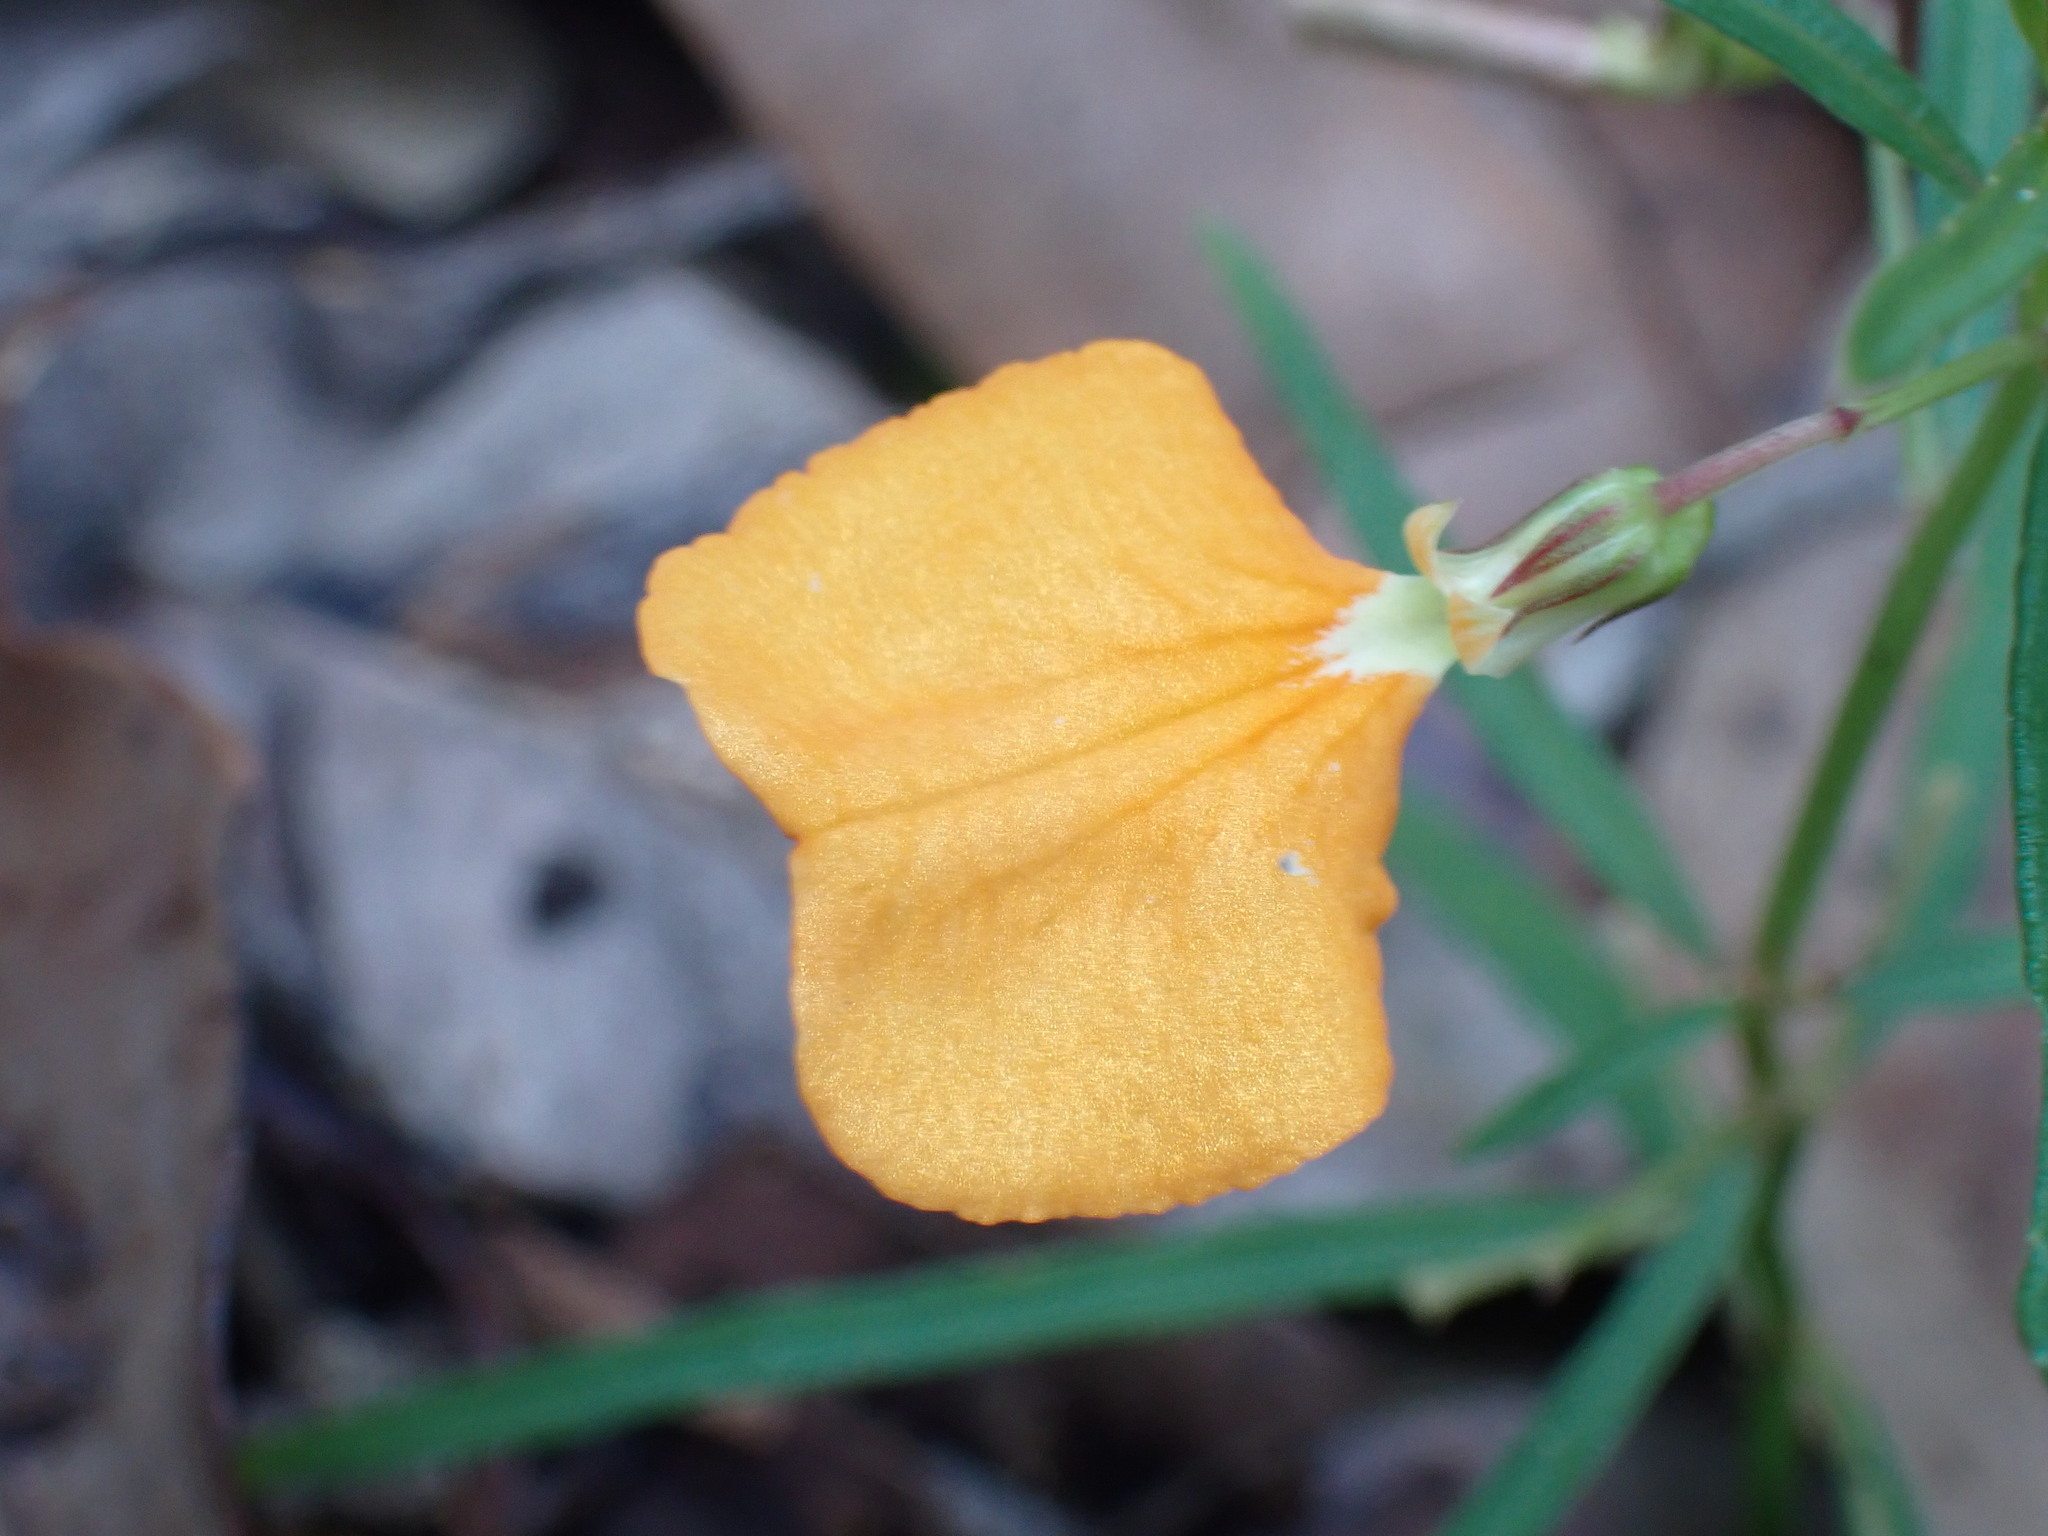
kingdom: Plantae
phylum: Tracheophyta
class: Magnoliopsida
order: Malpighiales
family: Violaceae
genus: Pigea
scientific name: Pigea stellarioides
